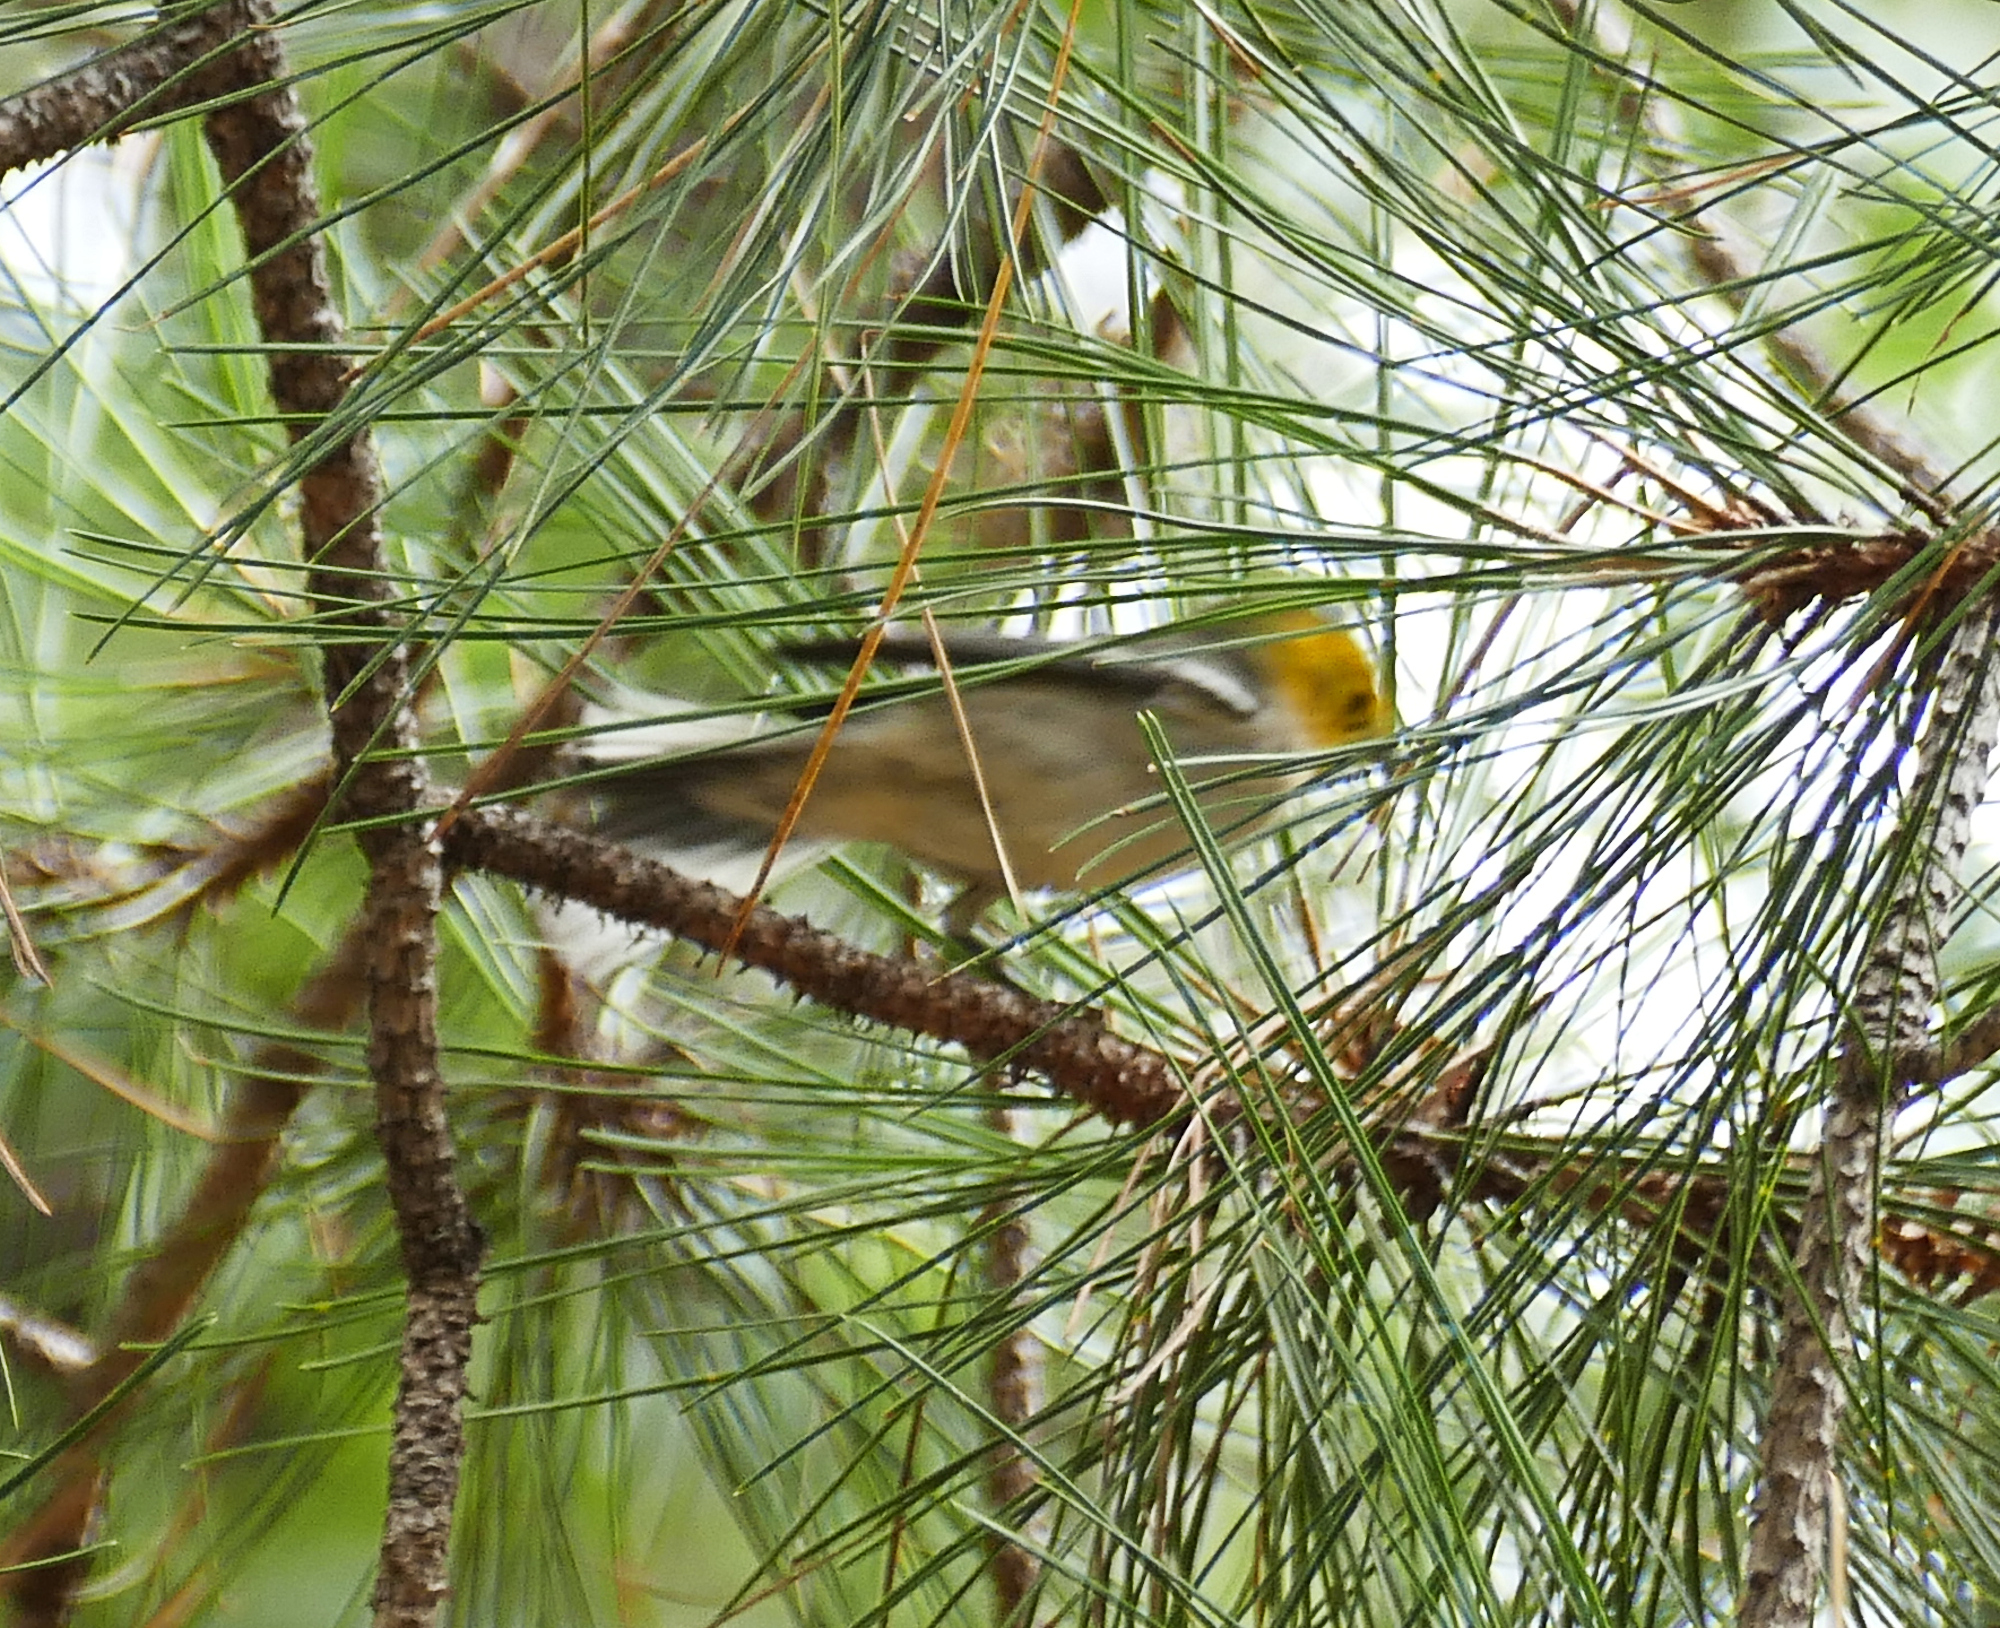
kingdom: Animalia
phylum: Chordata
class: Aves
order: Passeriformes
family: Parulidae
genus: Setophaga
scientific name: Setophaga occidentalis
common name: Hermit warbler
